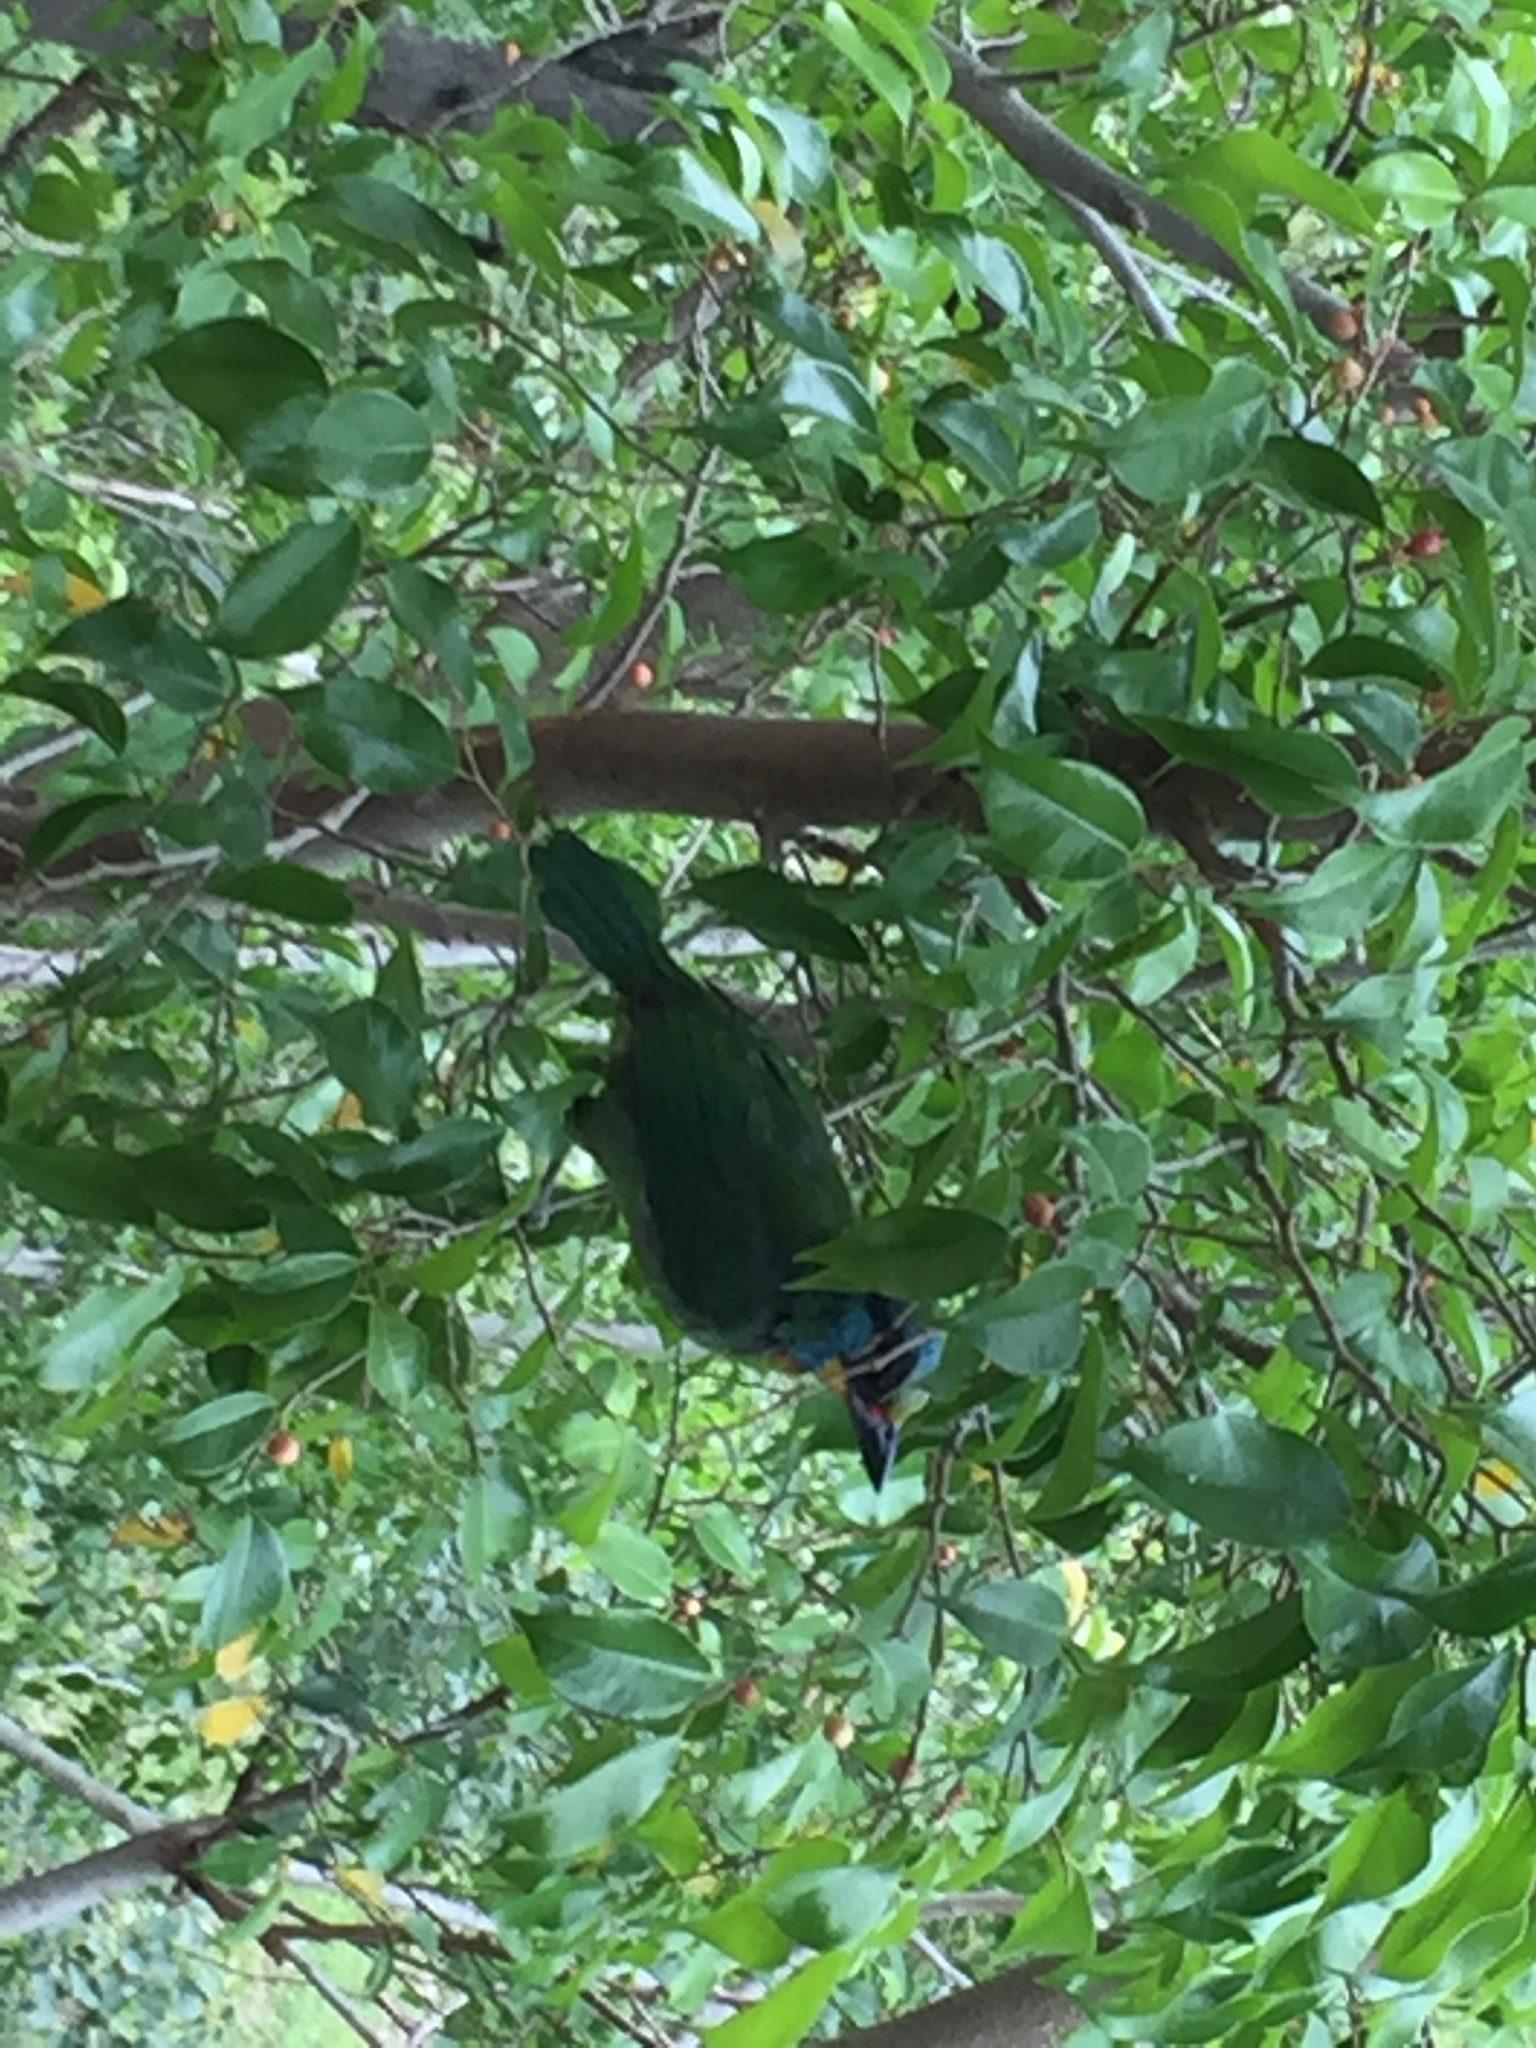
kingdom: Animalia
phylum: Chordata
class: Aves
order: Piciformes
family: Megalaimidae
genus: Psilopogon
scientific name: Psilopogon nuchalis
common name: Taiwan barbet
